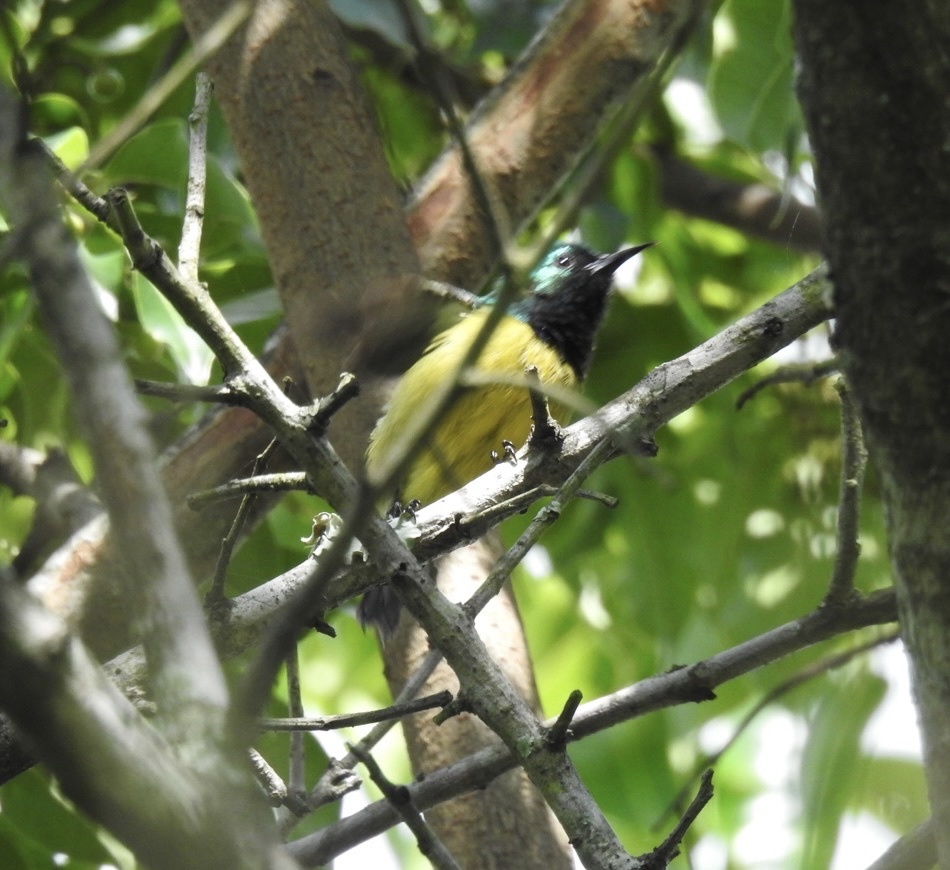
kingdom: Animalia
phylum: Chordata
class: Aves
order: Passeriformes
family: Nectariniidae
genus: Hedydipna
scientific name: Hedydipna collaris
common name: Collared sunbird
